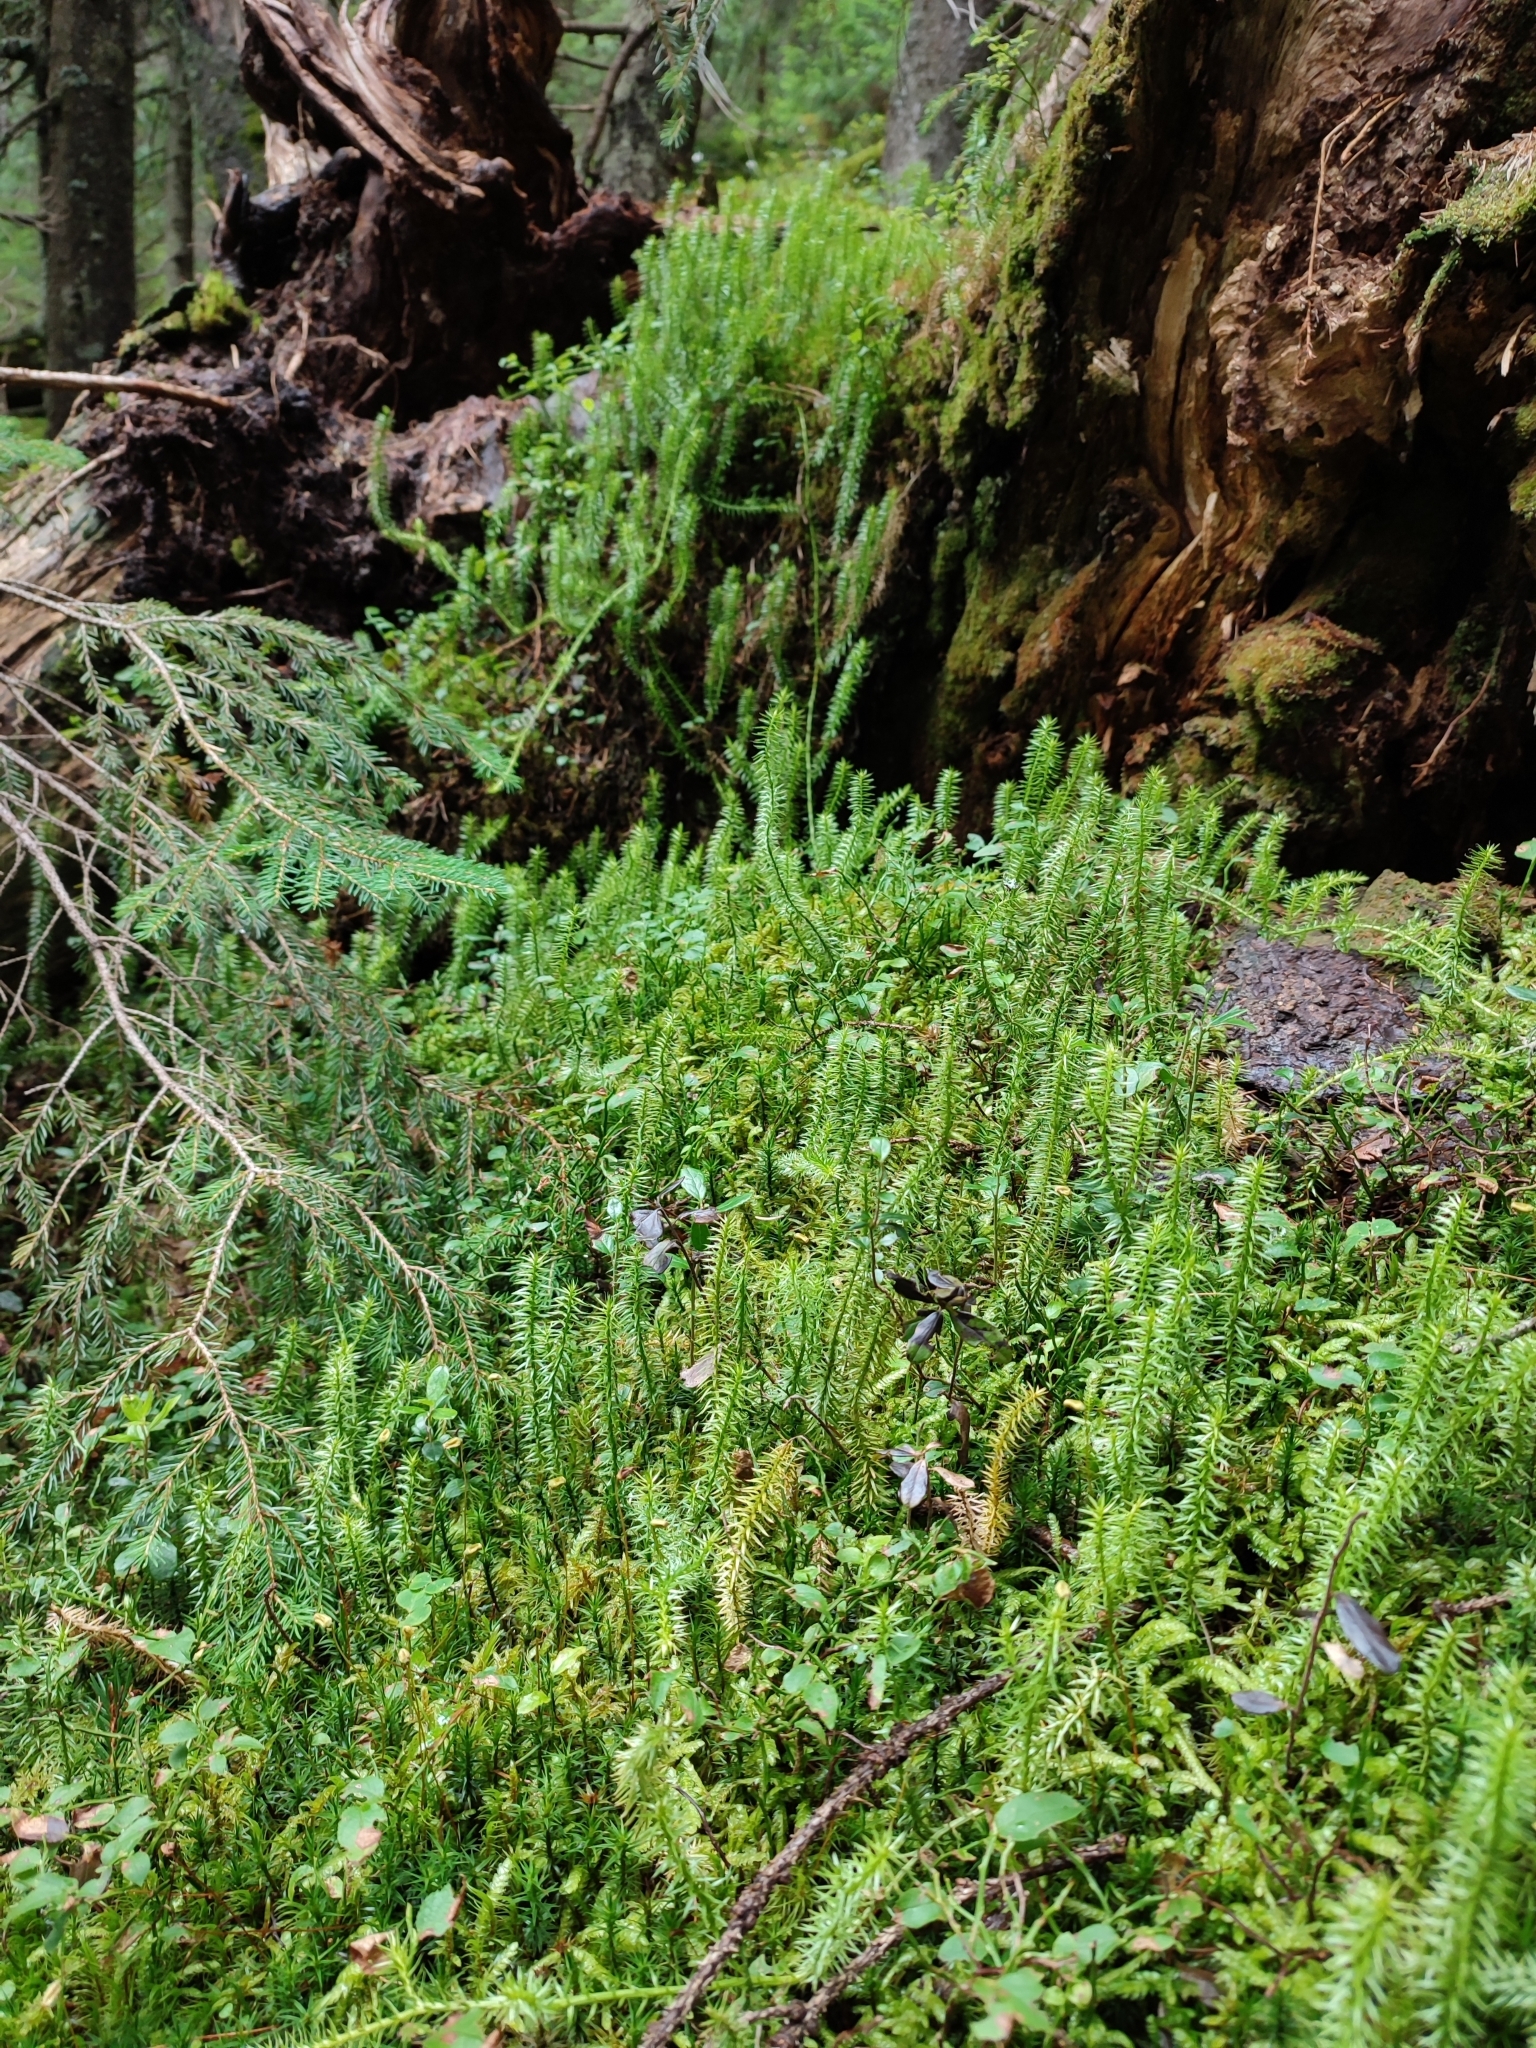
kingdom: Plantae
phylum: Tracheophyta
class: Lycopodiopsida
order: Lycopodiales
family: Lycopodiaceae
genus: Spinulum
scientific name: Spinulum annotinum
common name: Interrupted club-moss
